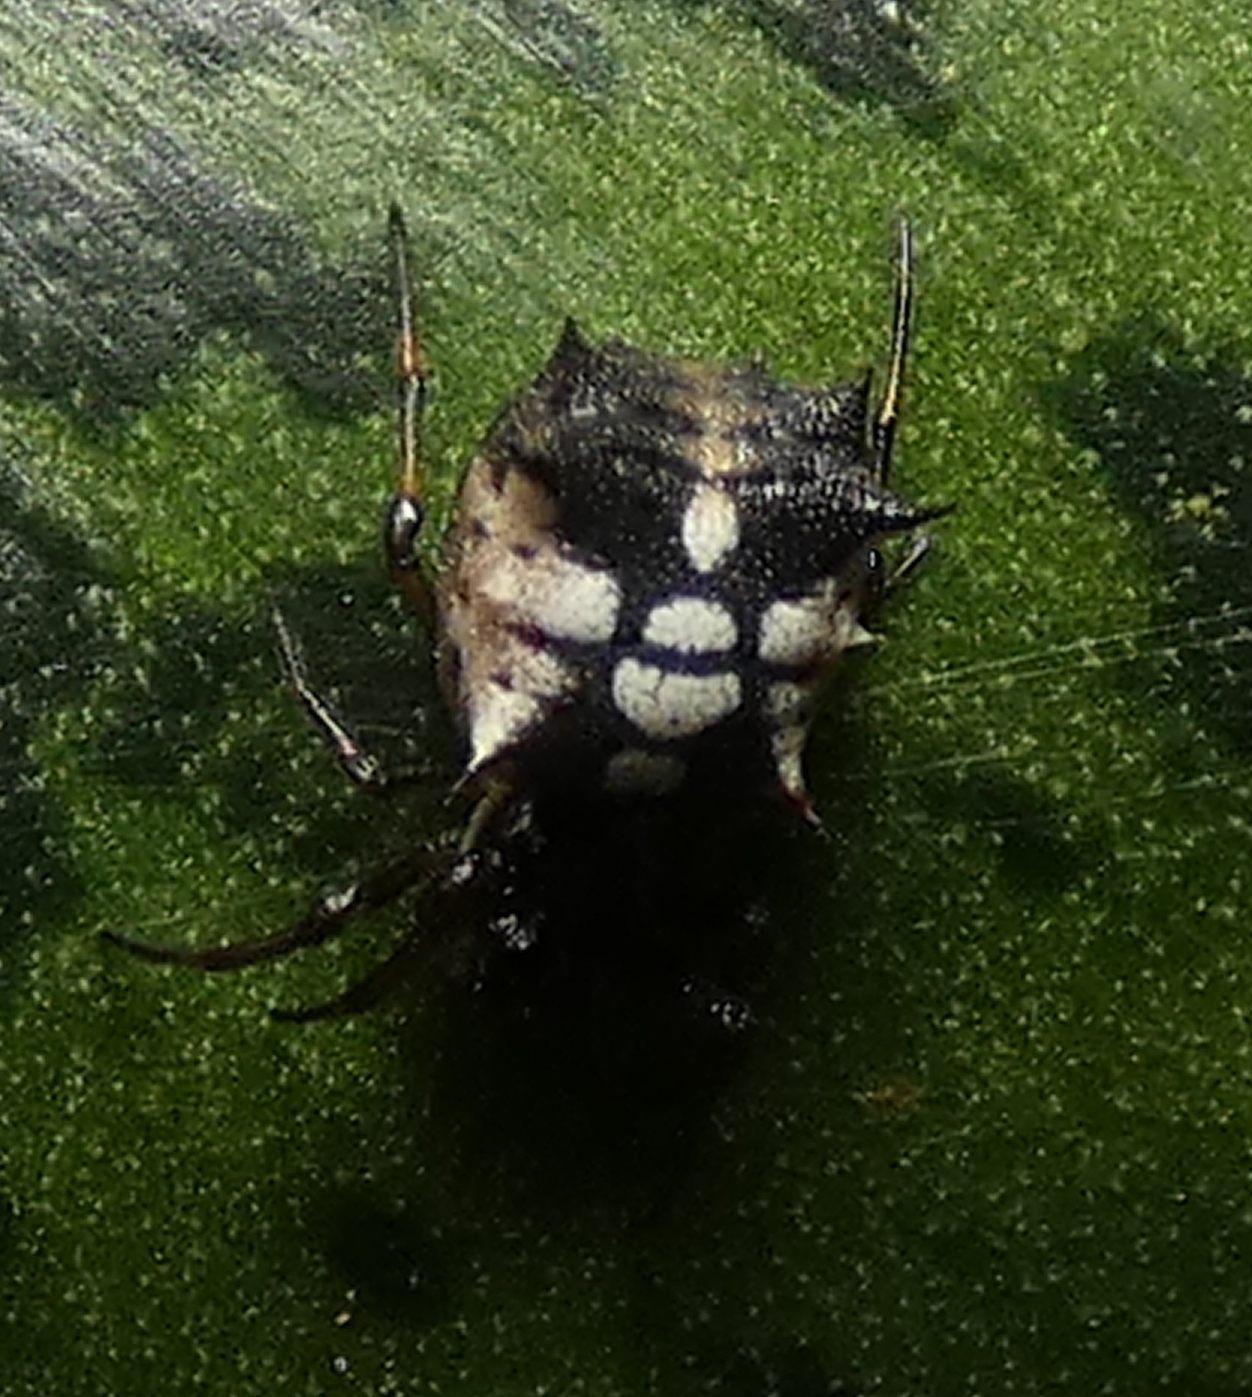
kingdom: Animalia
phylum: Arthropoda
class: Arachnida
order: Araneae
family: Araneidae
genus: Micrathena
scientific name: Micrathena picta
